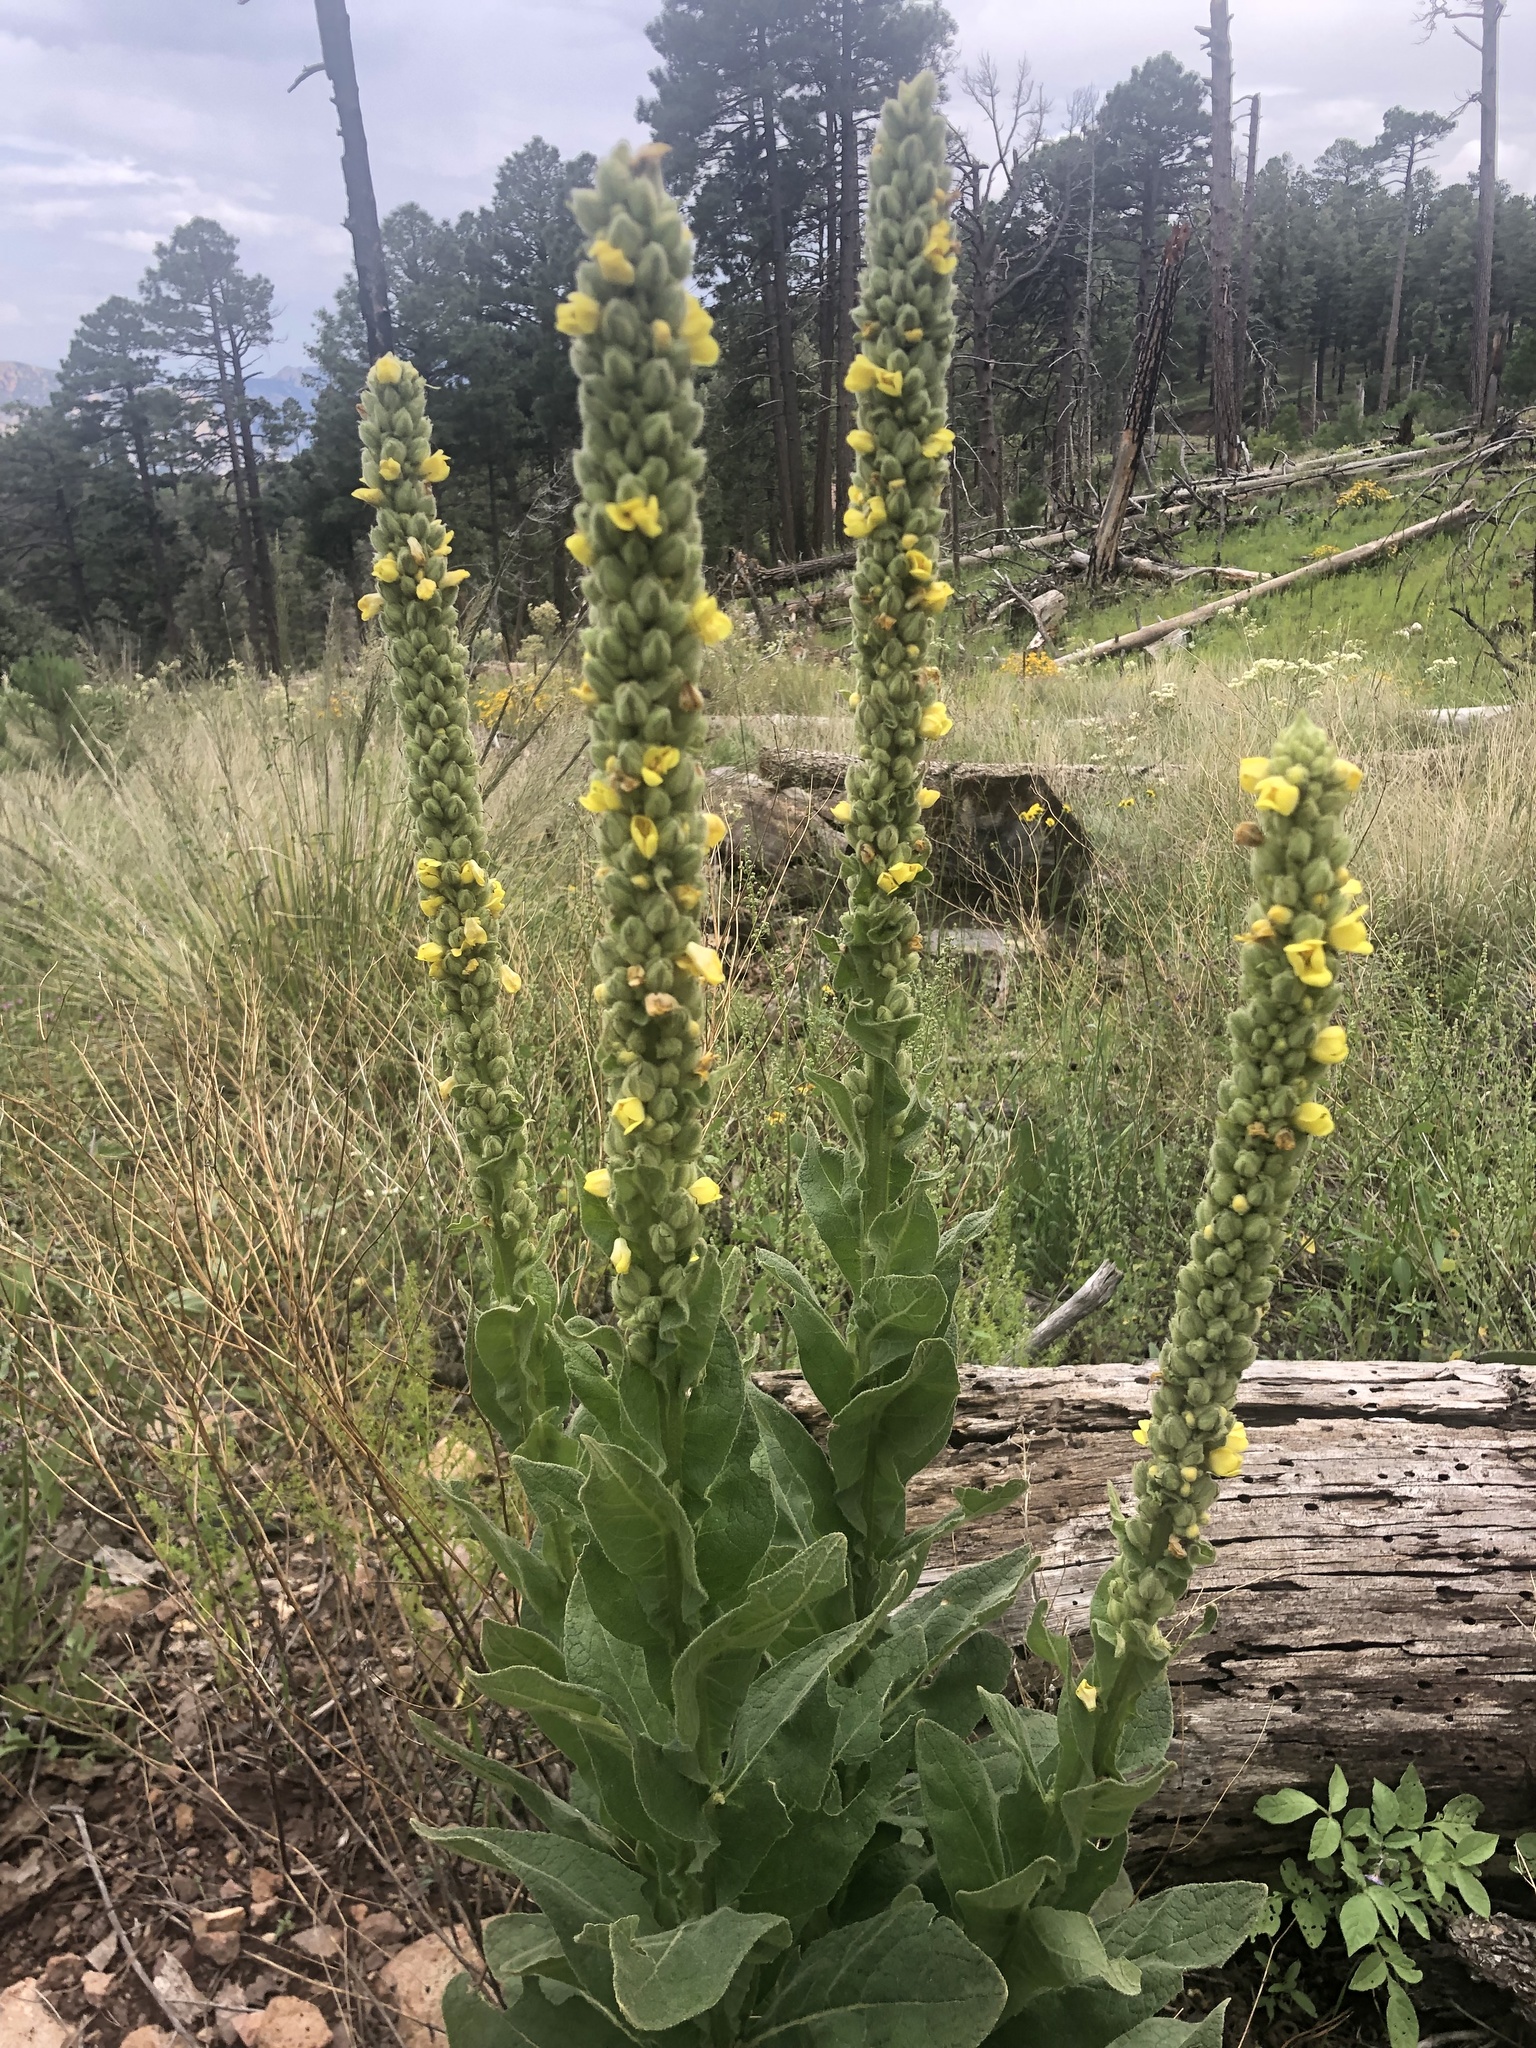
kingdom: Plantae
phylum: Tracheophyta
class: Magnoliopsida
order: Lamiales
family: Scrophulariaceae
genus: Verbascum
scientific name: Verbascum thapsus
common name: Common mullein
